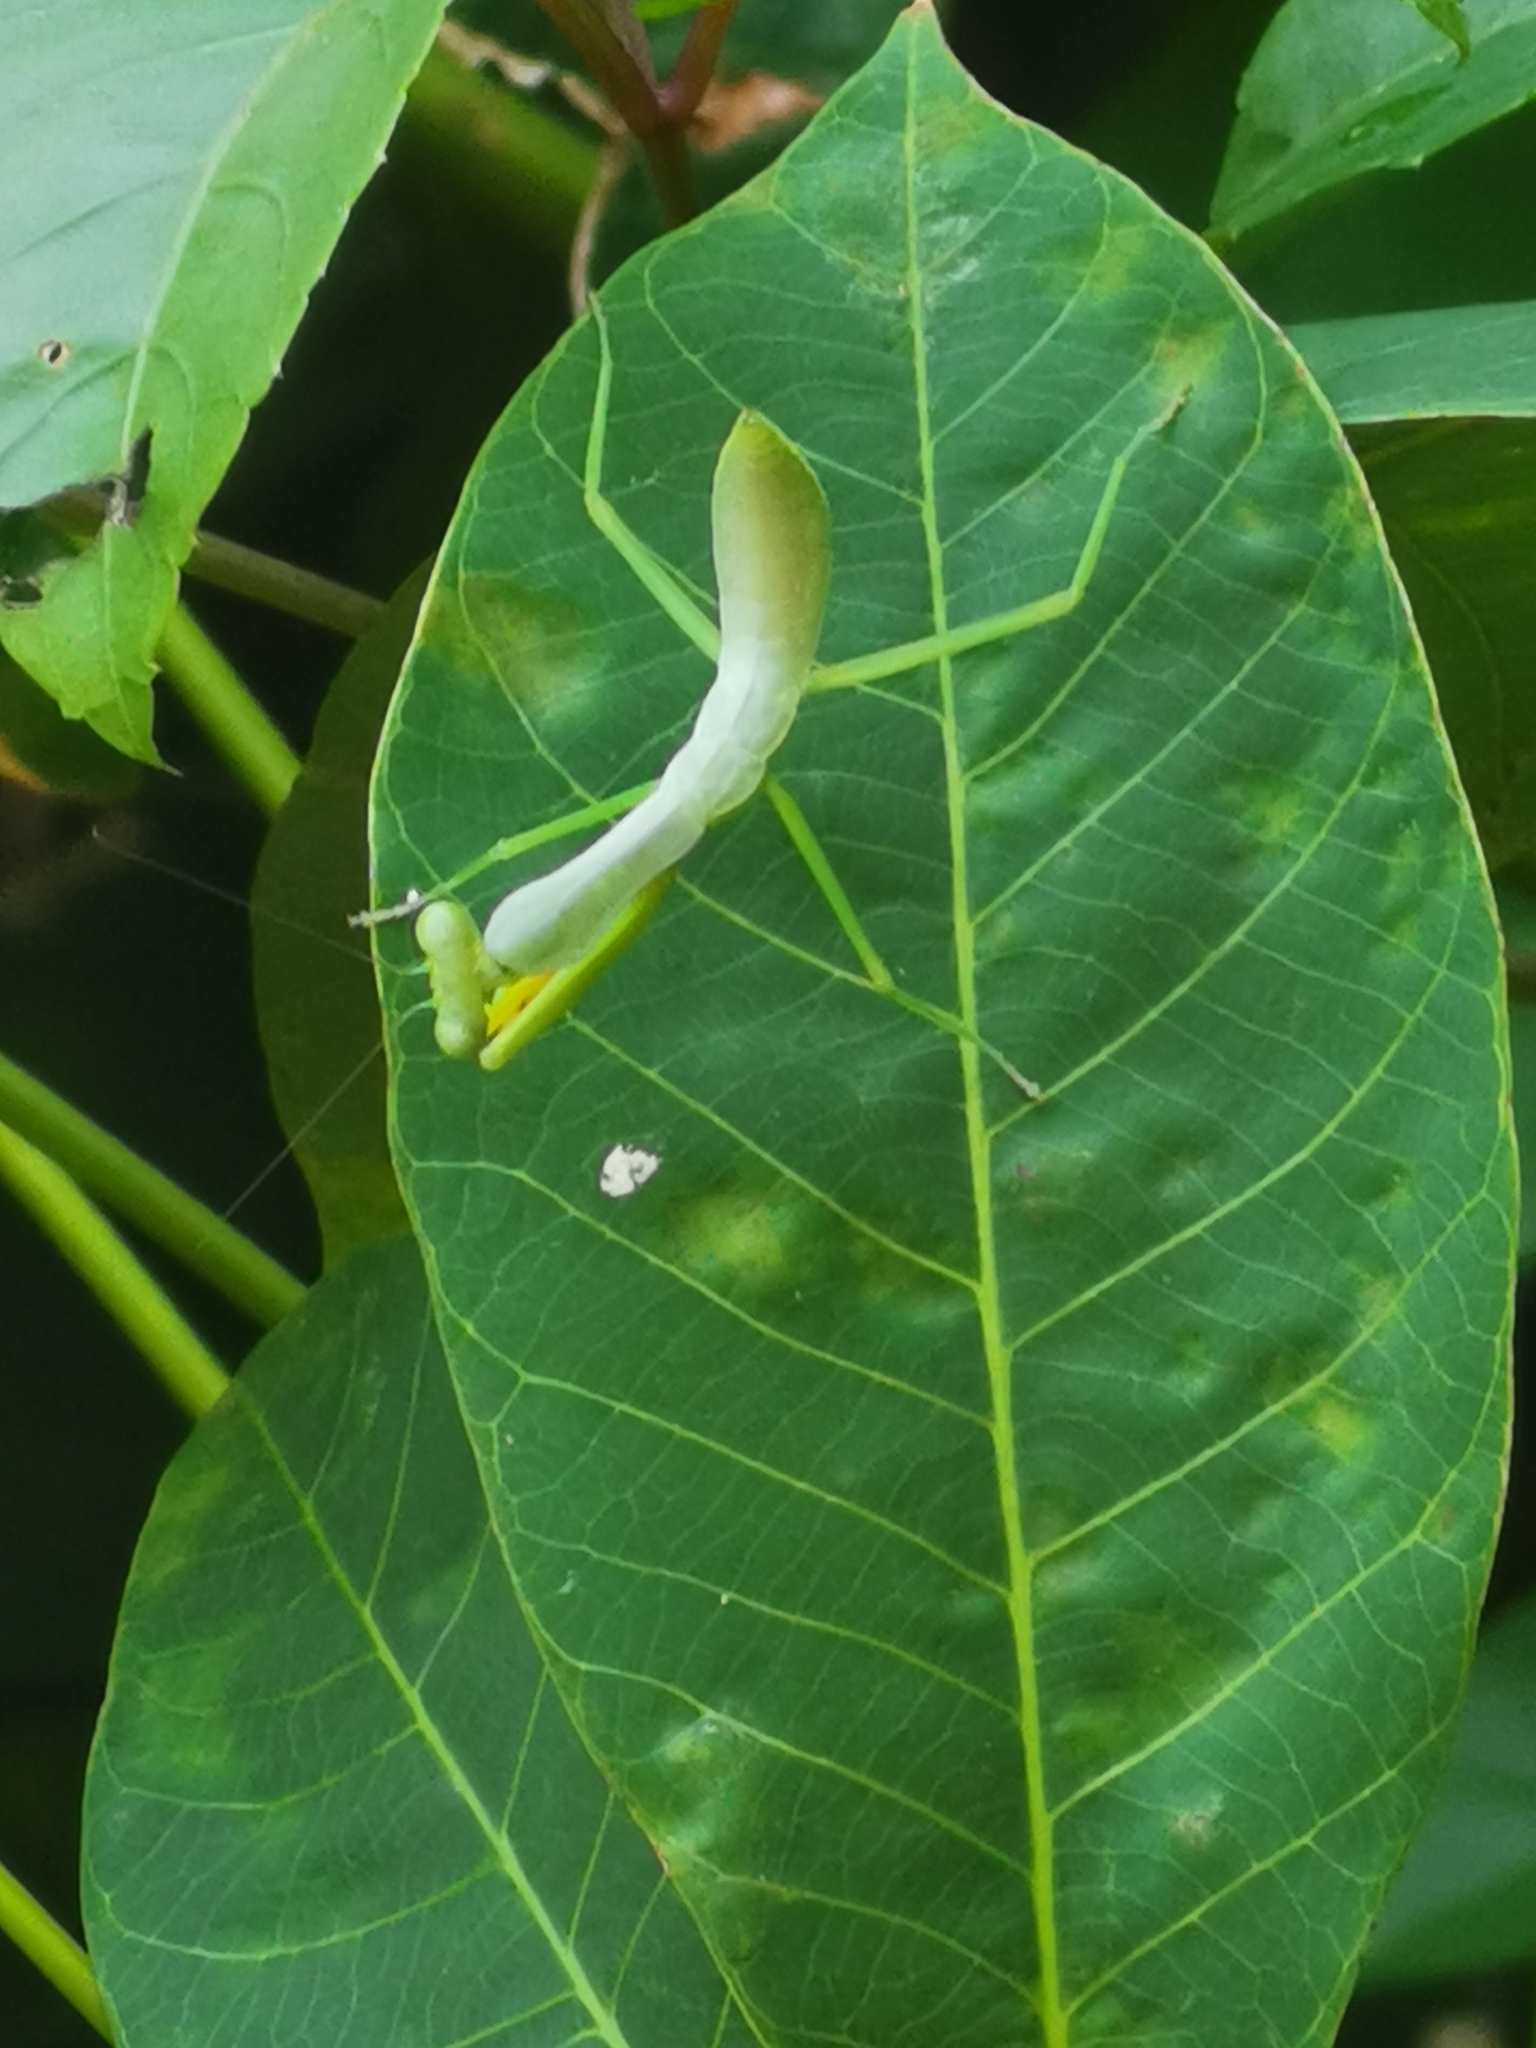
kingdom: Animalia
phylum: Arthropoda
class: Insecta
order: Mantodea
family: Mantidae
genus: Hierodula
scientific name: Hierodula venosa
